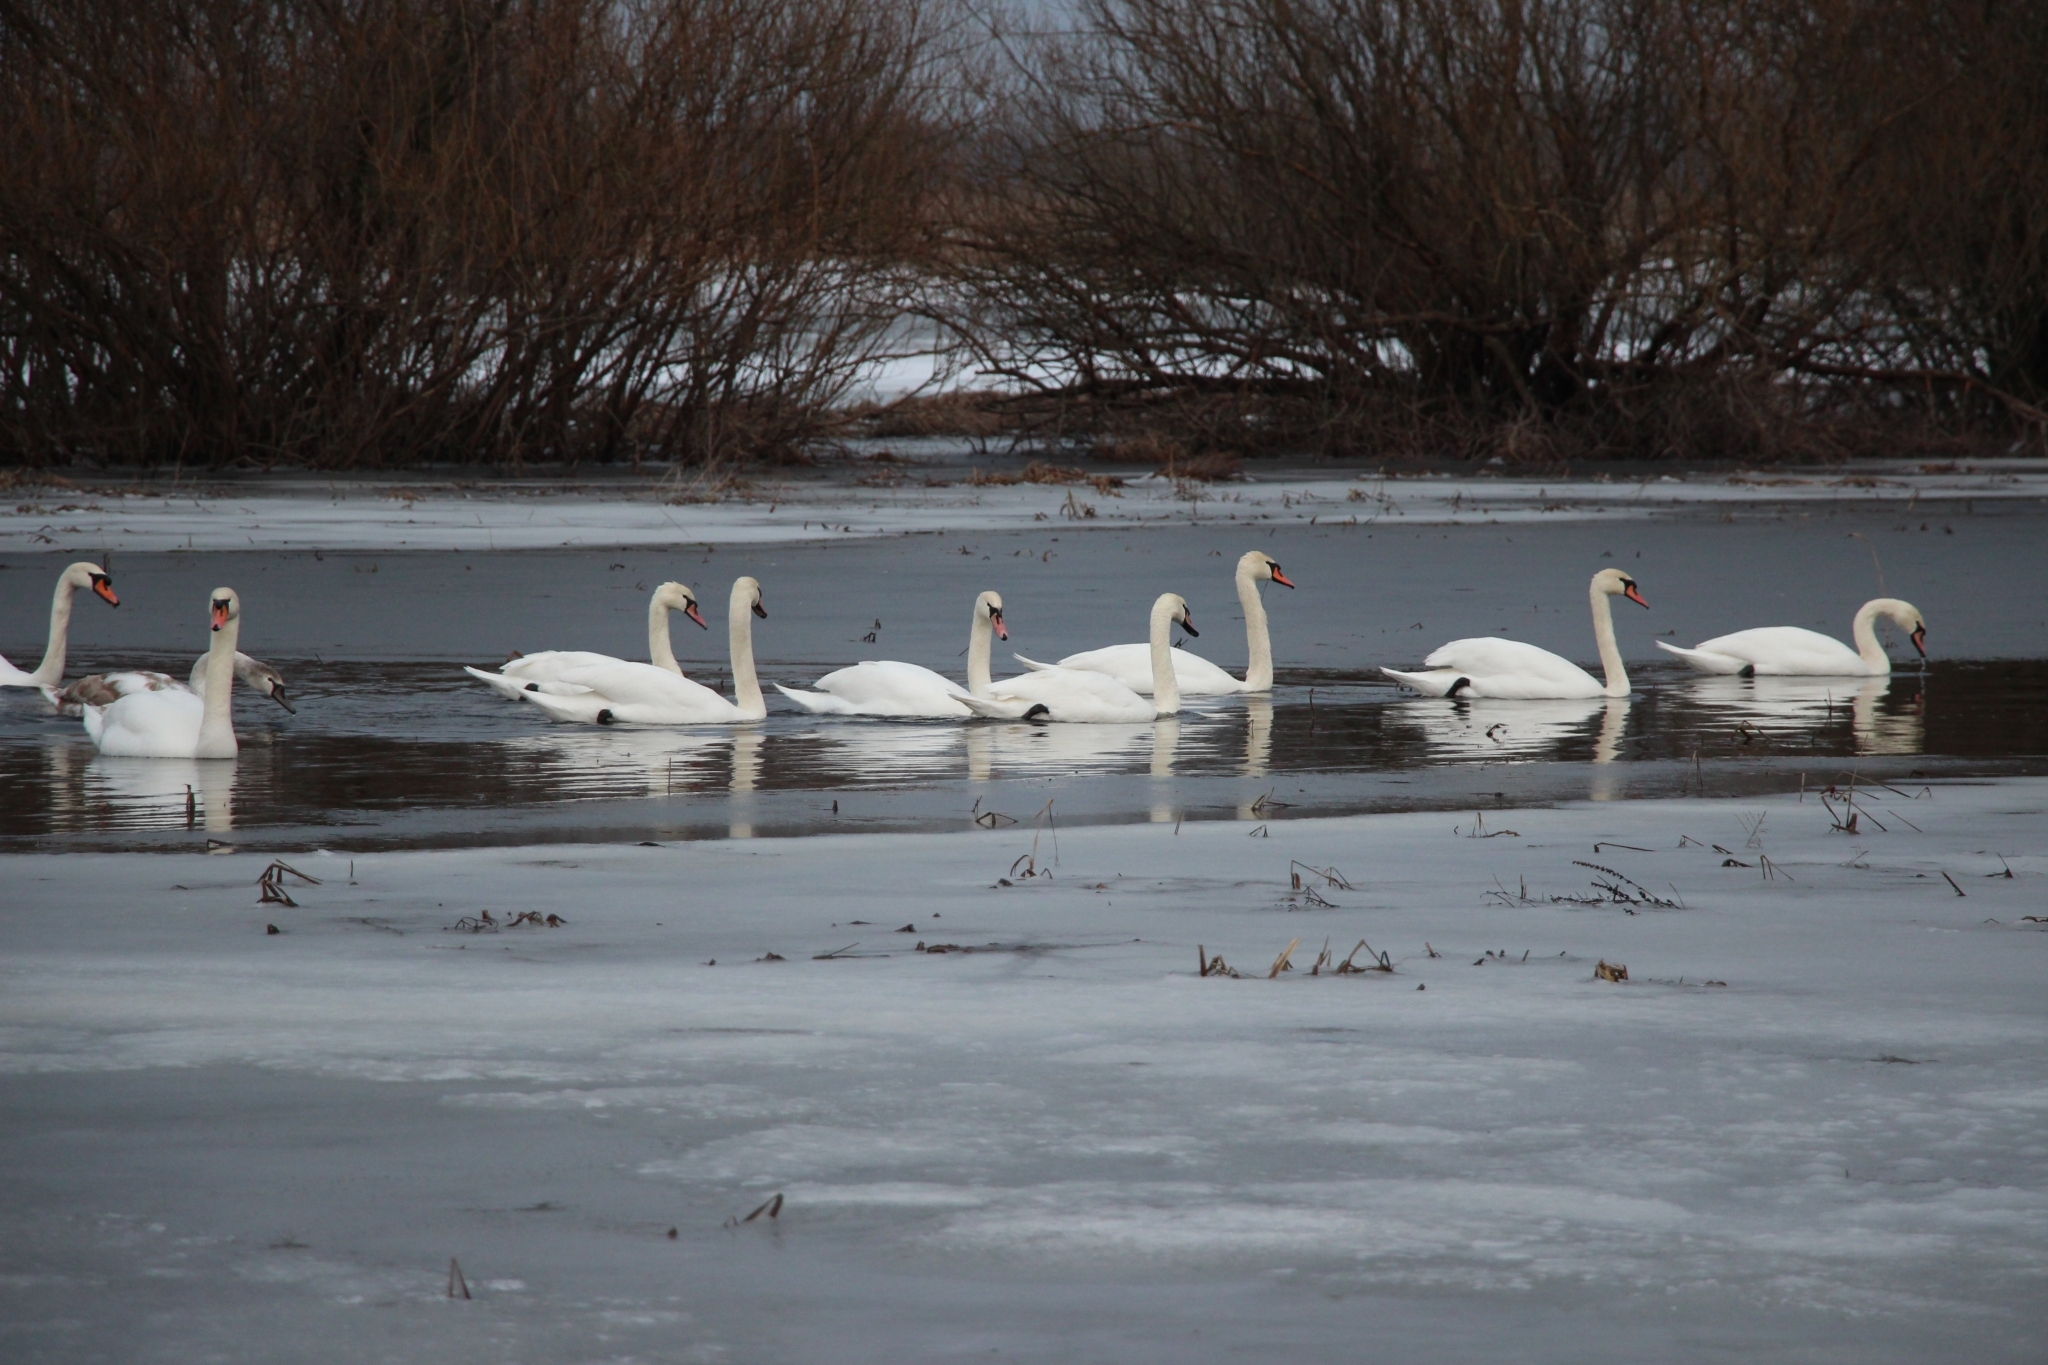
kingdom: Animalia
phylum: Chordata
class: Aves
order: Anseriformes
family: Anatidae
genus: Cygnus
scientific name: Cygnus olor
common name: Mute swan
